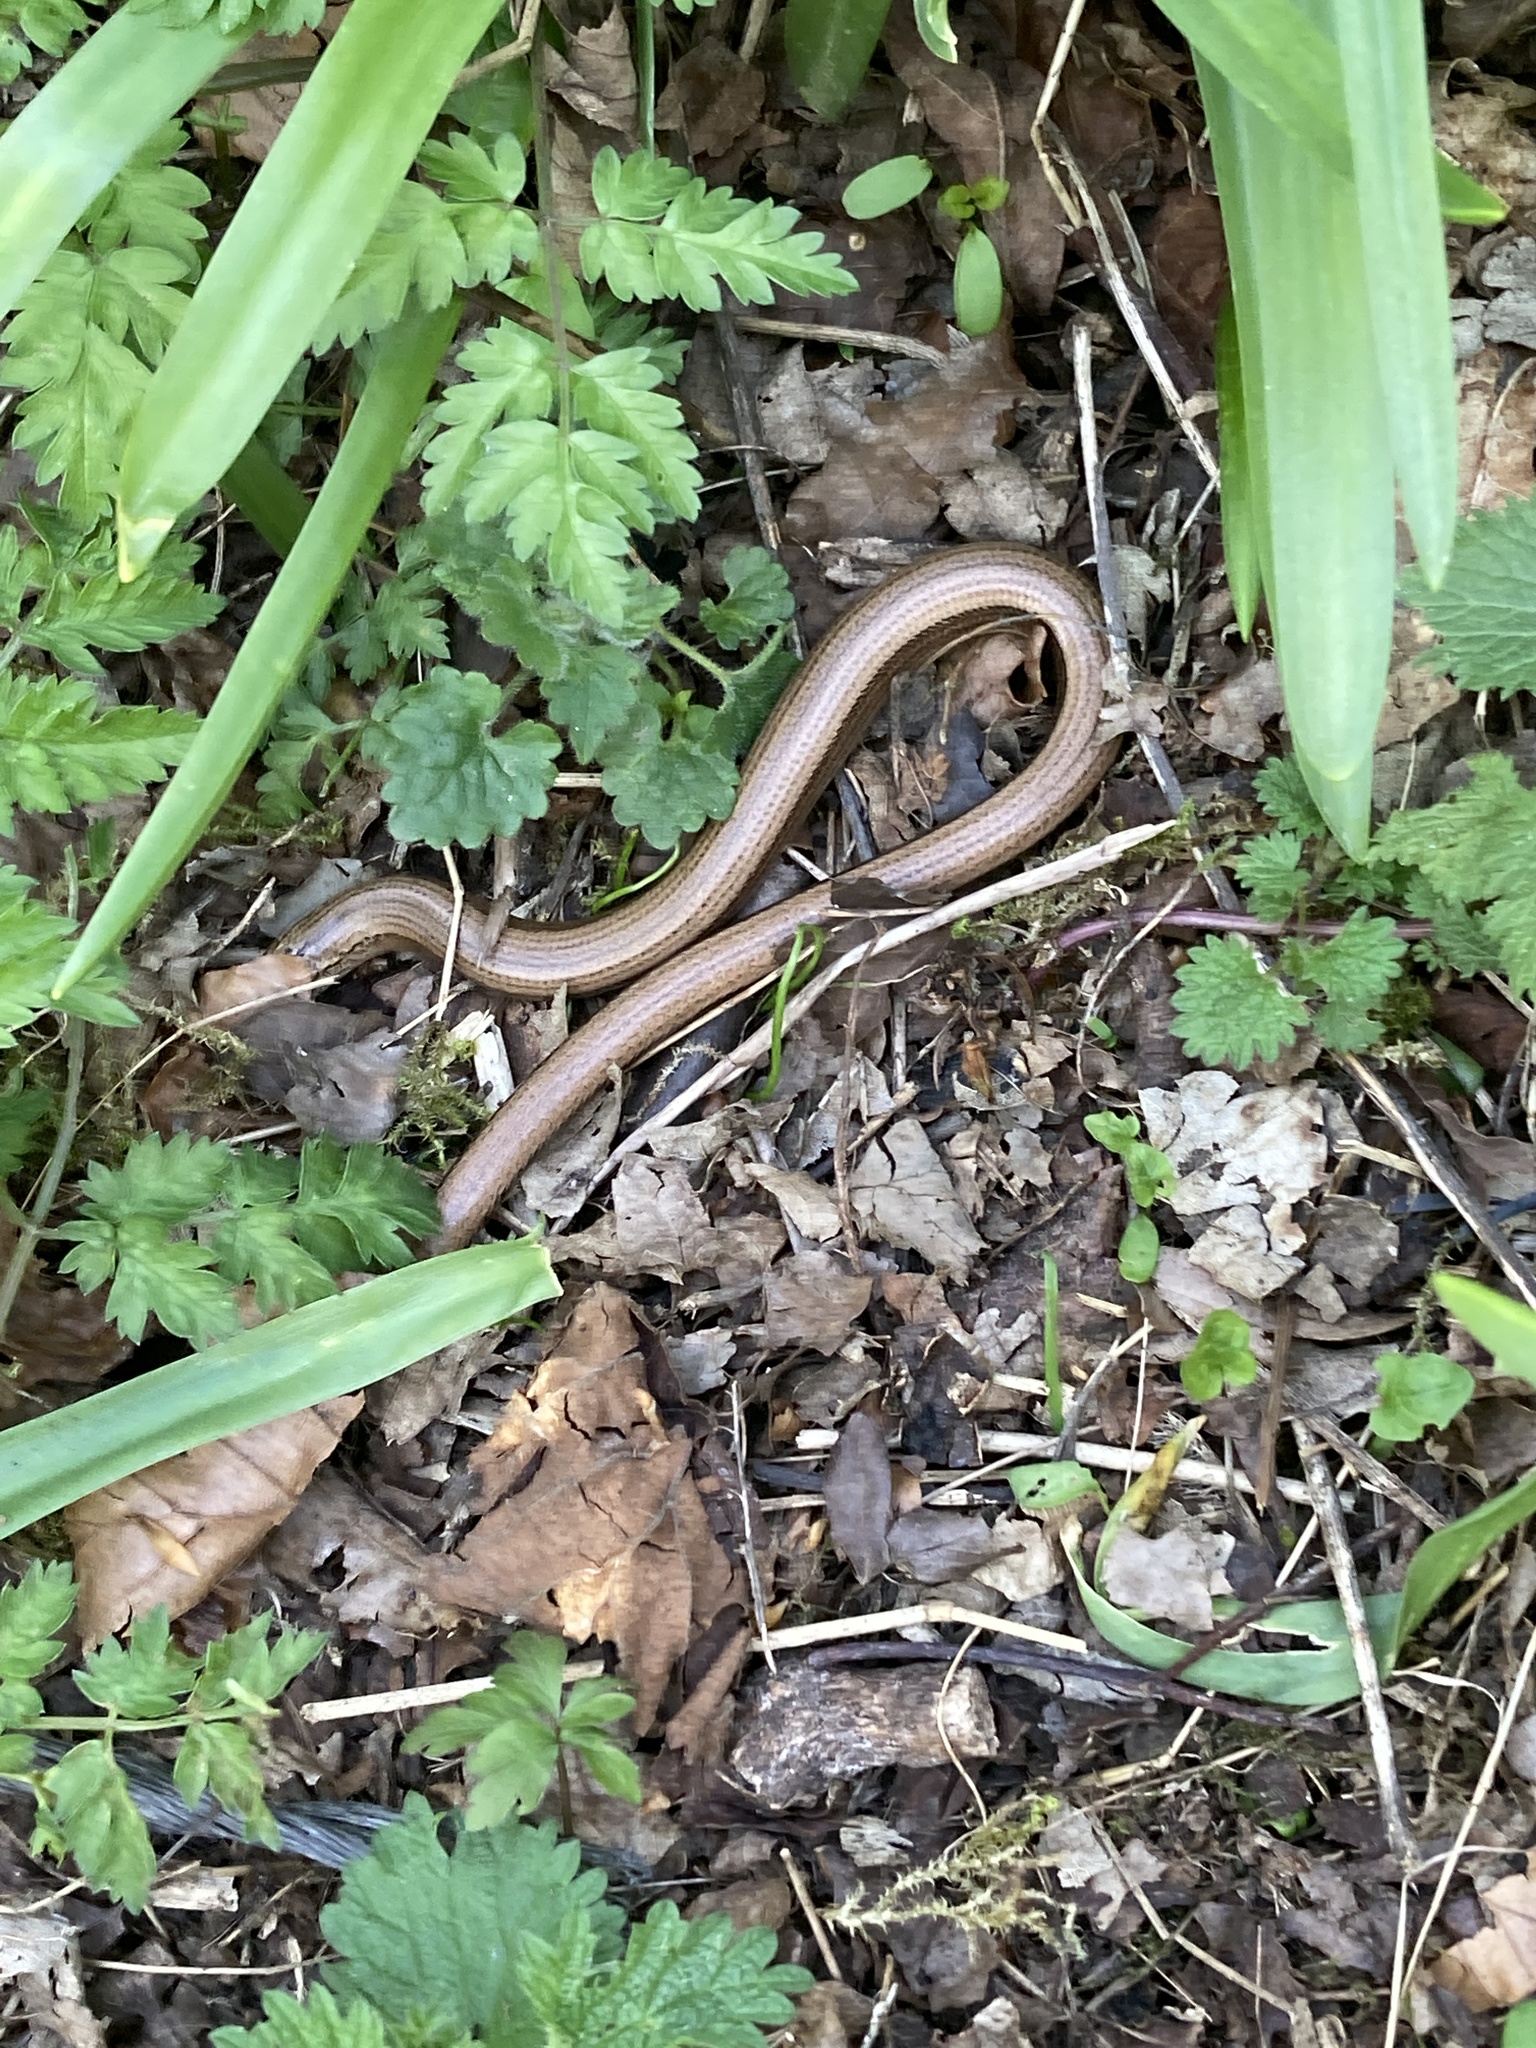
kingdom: Animalia
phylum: Chordata
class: Squamata
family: Anguidae
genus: Anguis
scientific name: Anguis fragilis
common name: Slow worm
